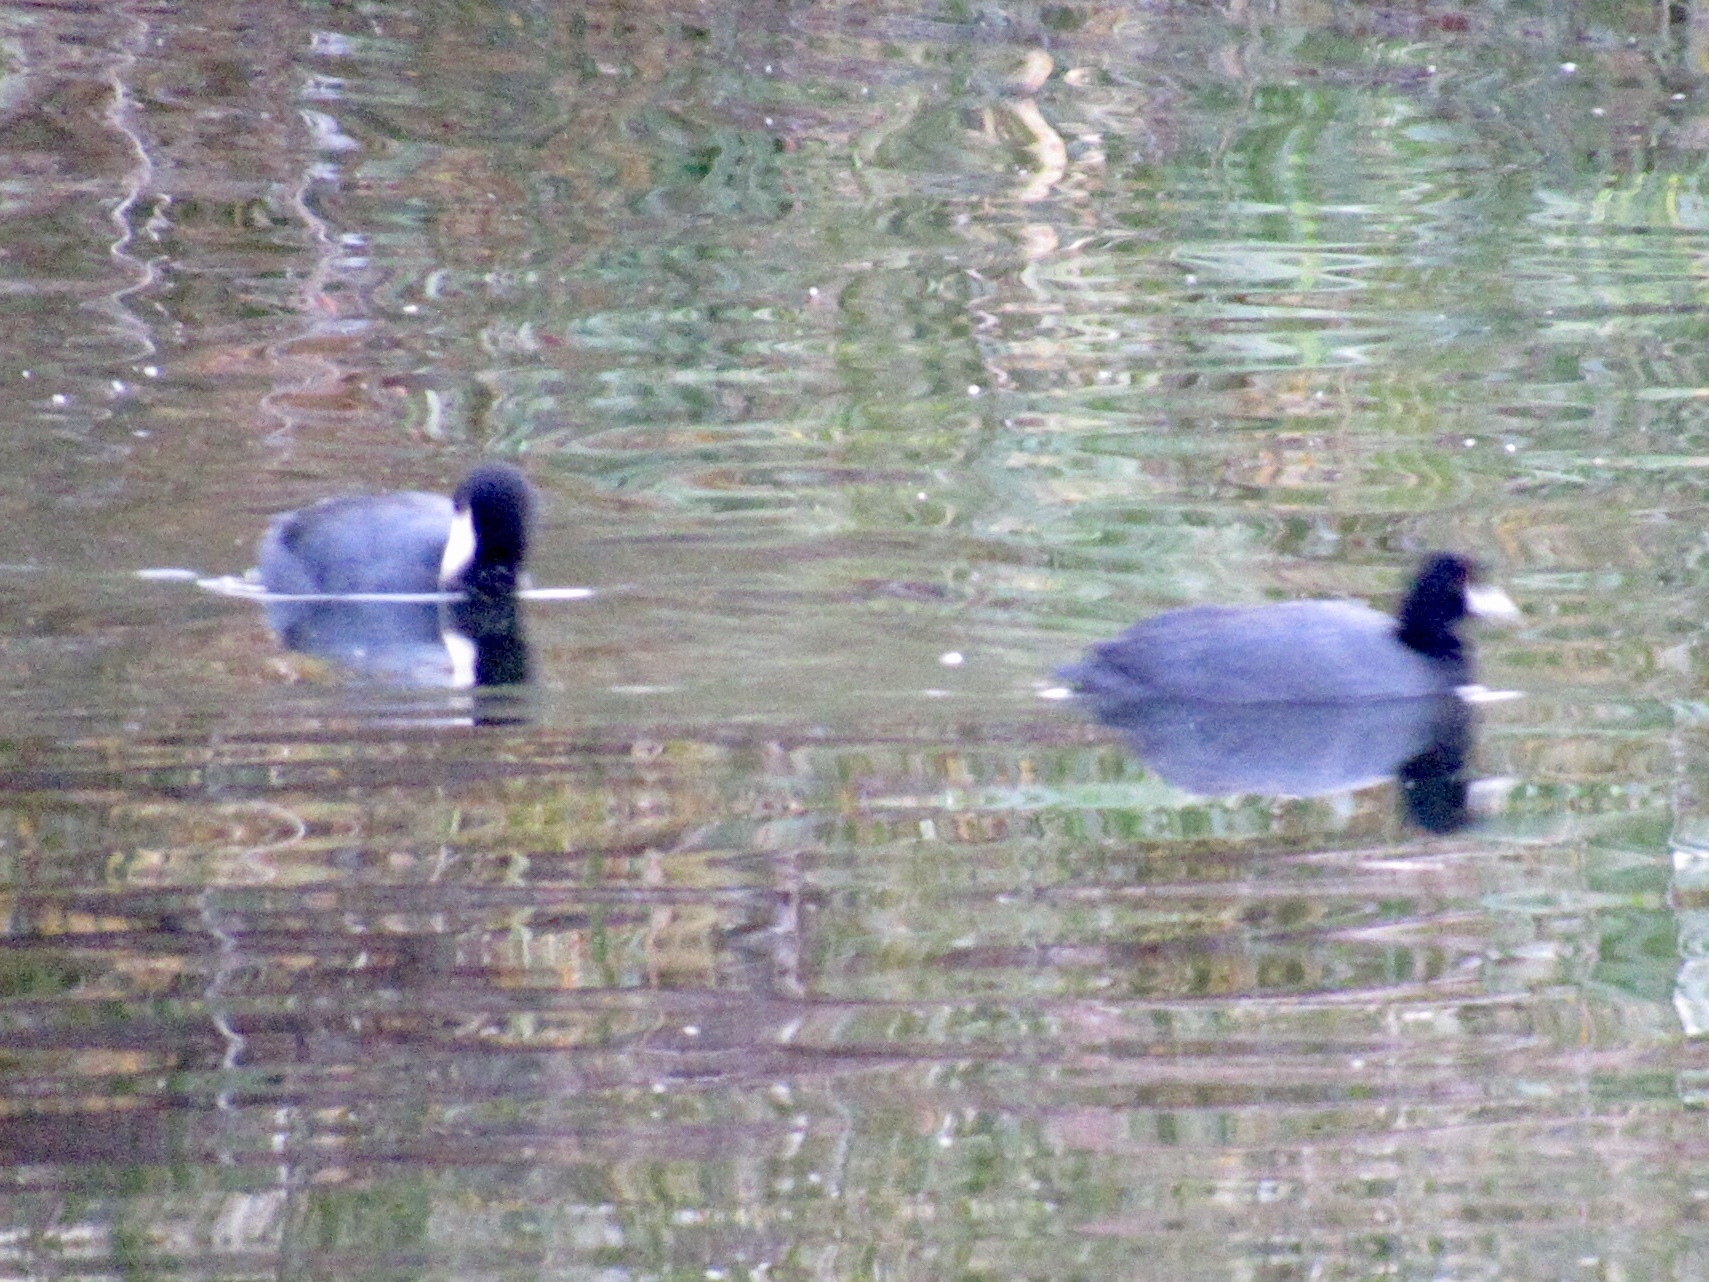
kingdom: Animalia
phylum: Chordata
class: Aves
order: Gruiformes
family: Rallidae
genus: Fulica
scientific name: Fulica americana
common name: American coot
